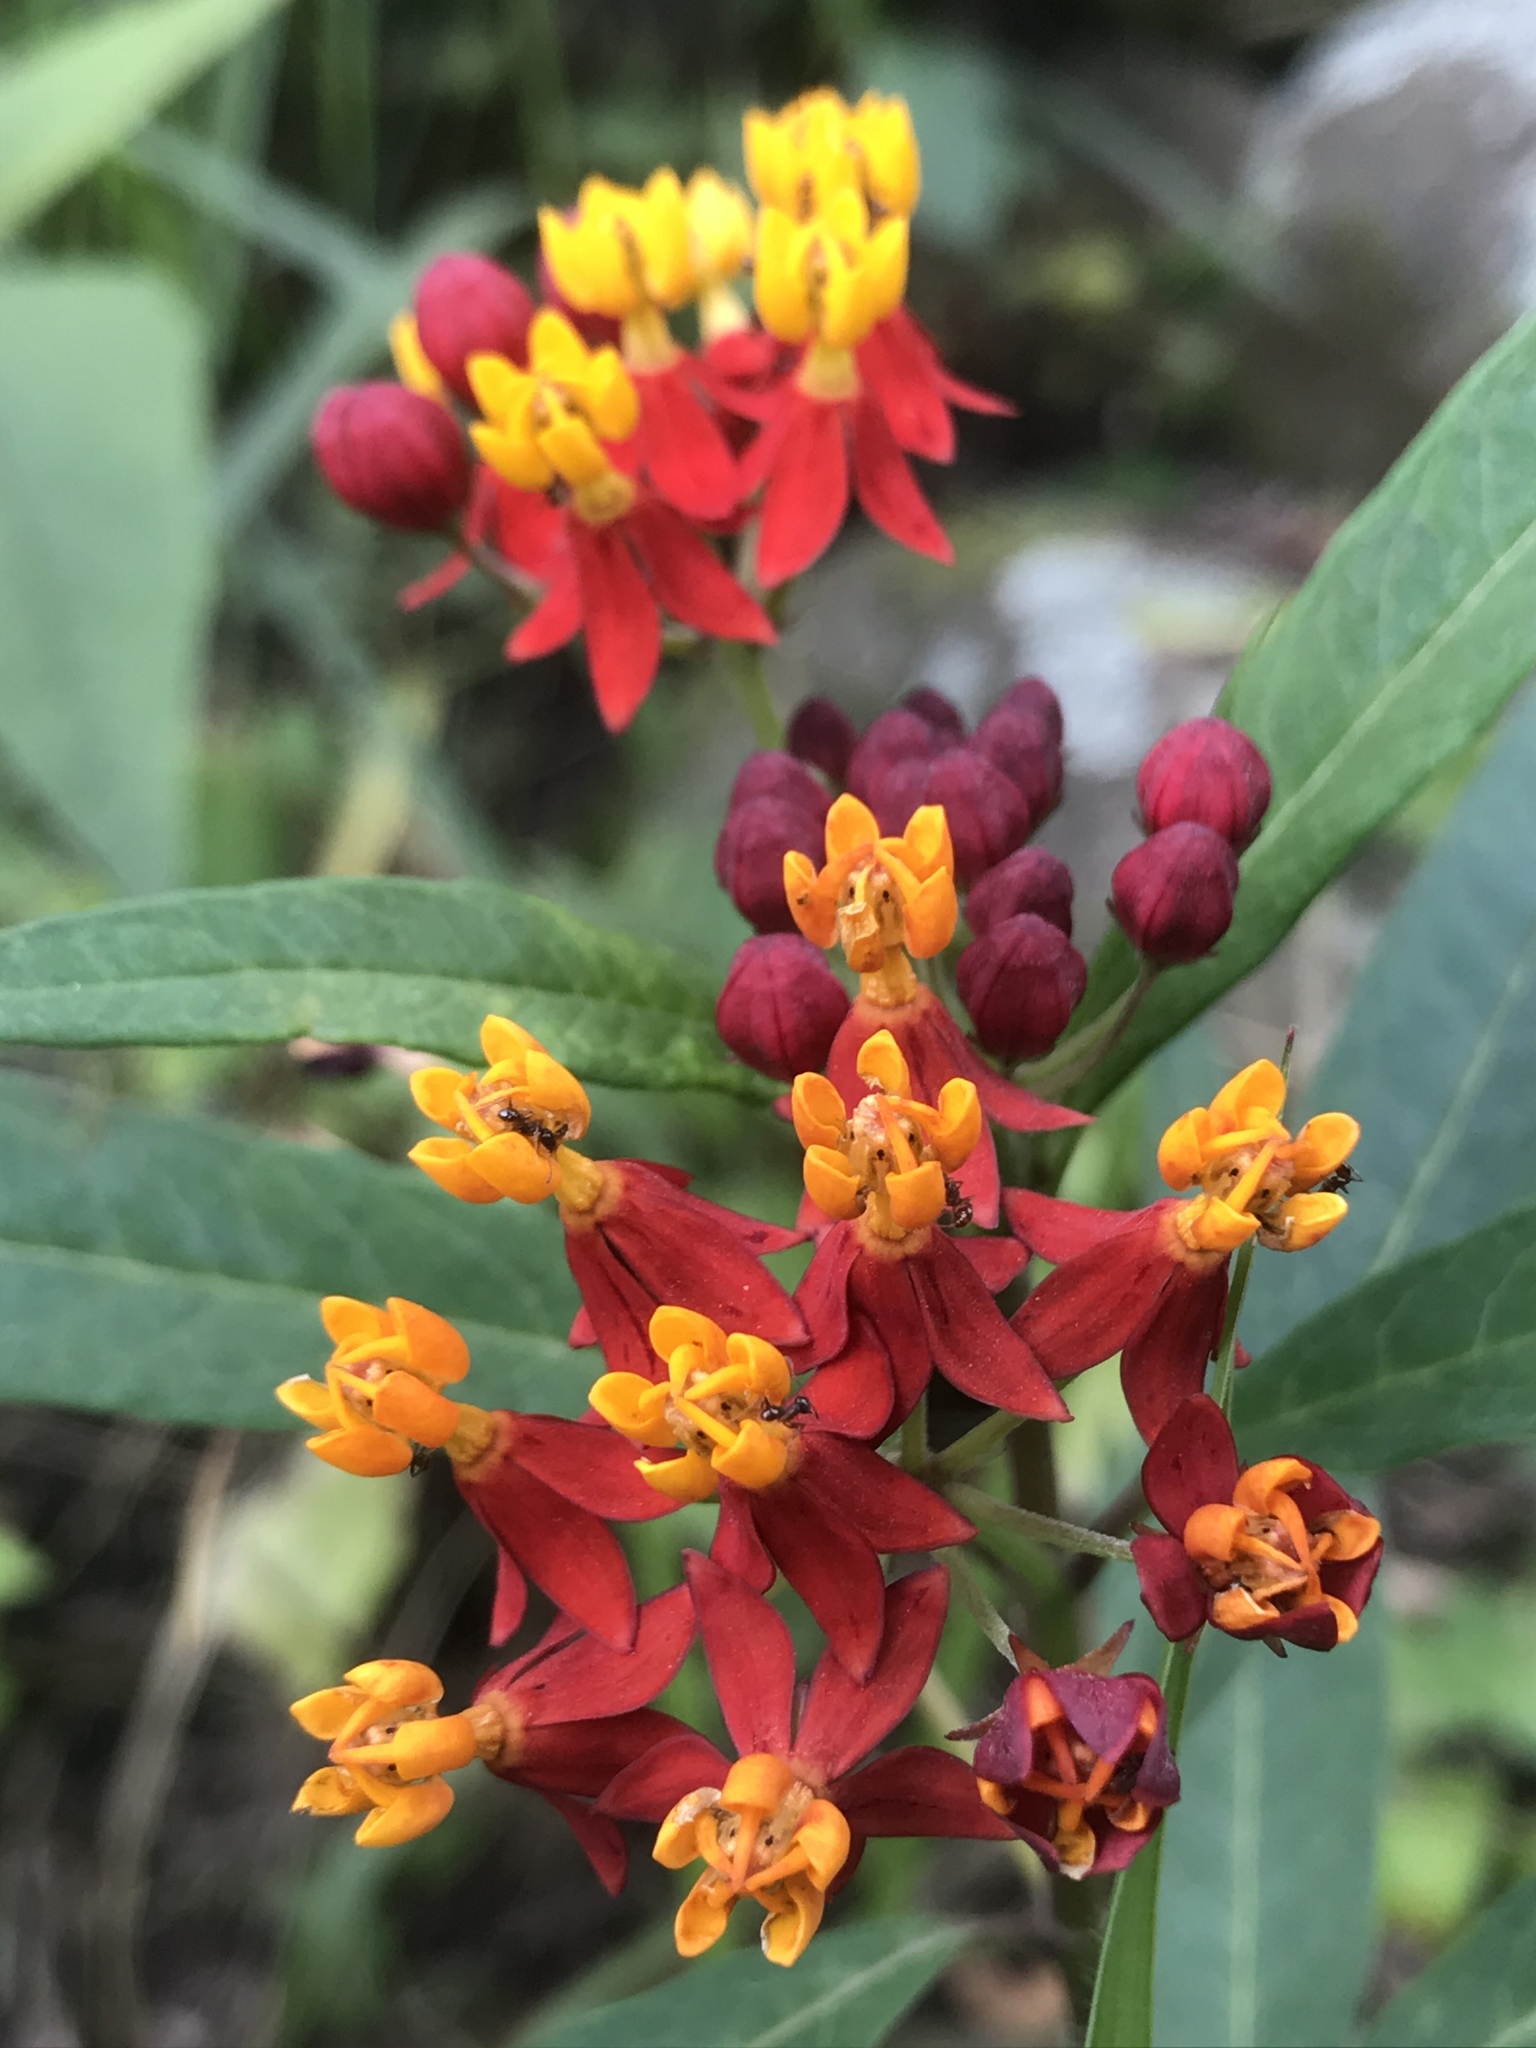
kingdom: Plantae
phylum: Tracheophyta
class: Magnoliopsida
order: Gentianales
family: Apocynaceae
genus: Asclepias
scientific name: Asclepias curassavica
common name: Bloodflower
